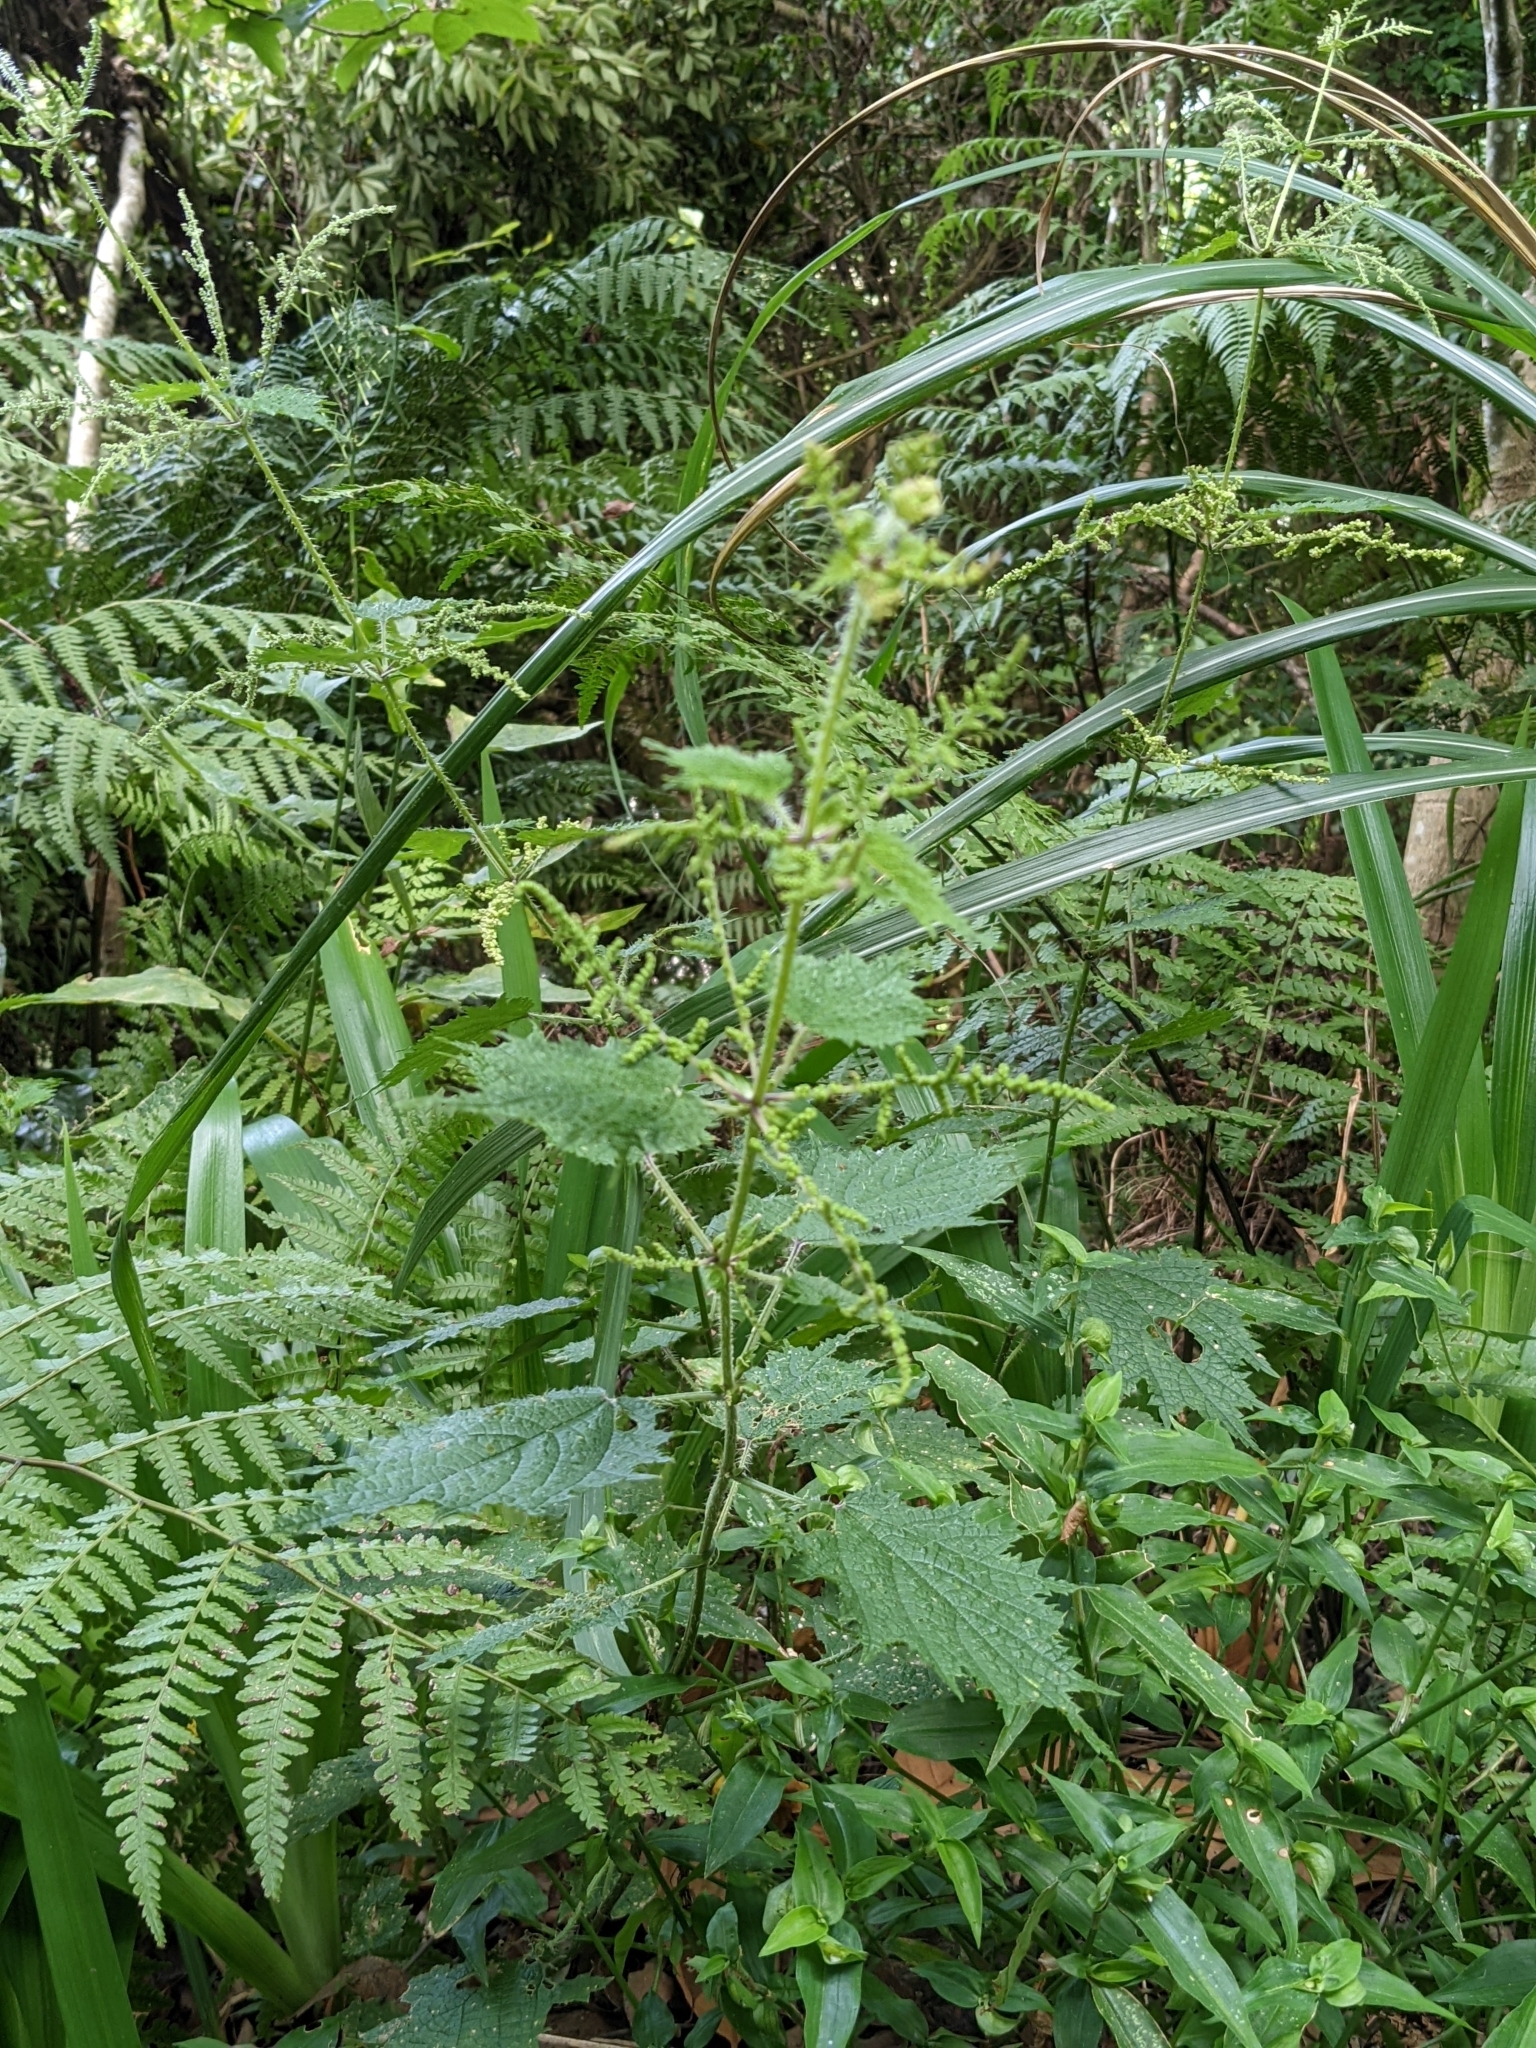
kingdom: Plantae
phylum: Tracheophyta
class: Magnoliopsida
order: Rosales
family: Urticaceae
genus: Urtica
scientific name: Urtica thunbergiana
